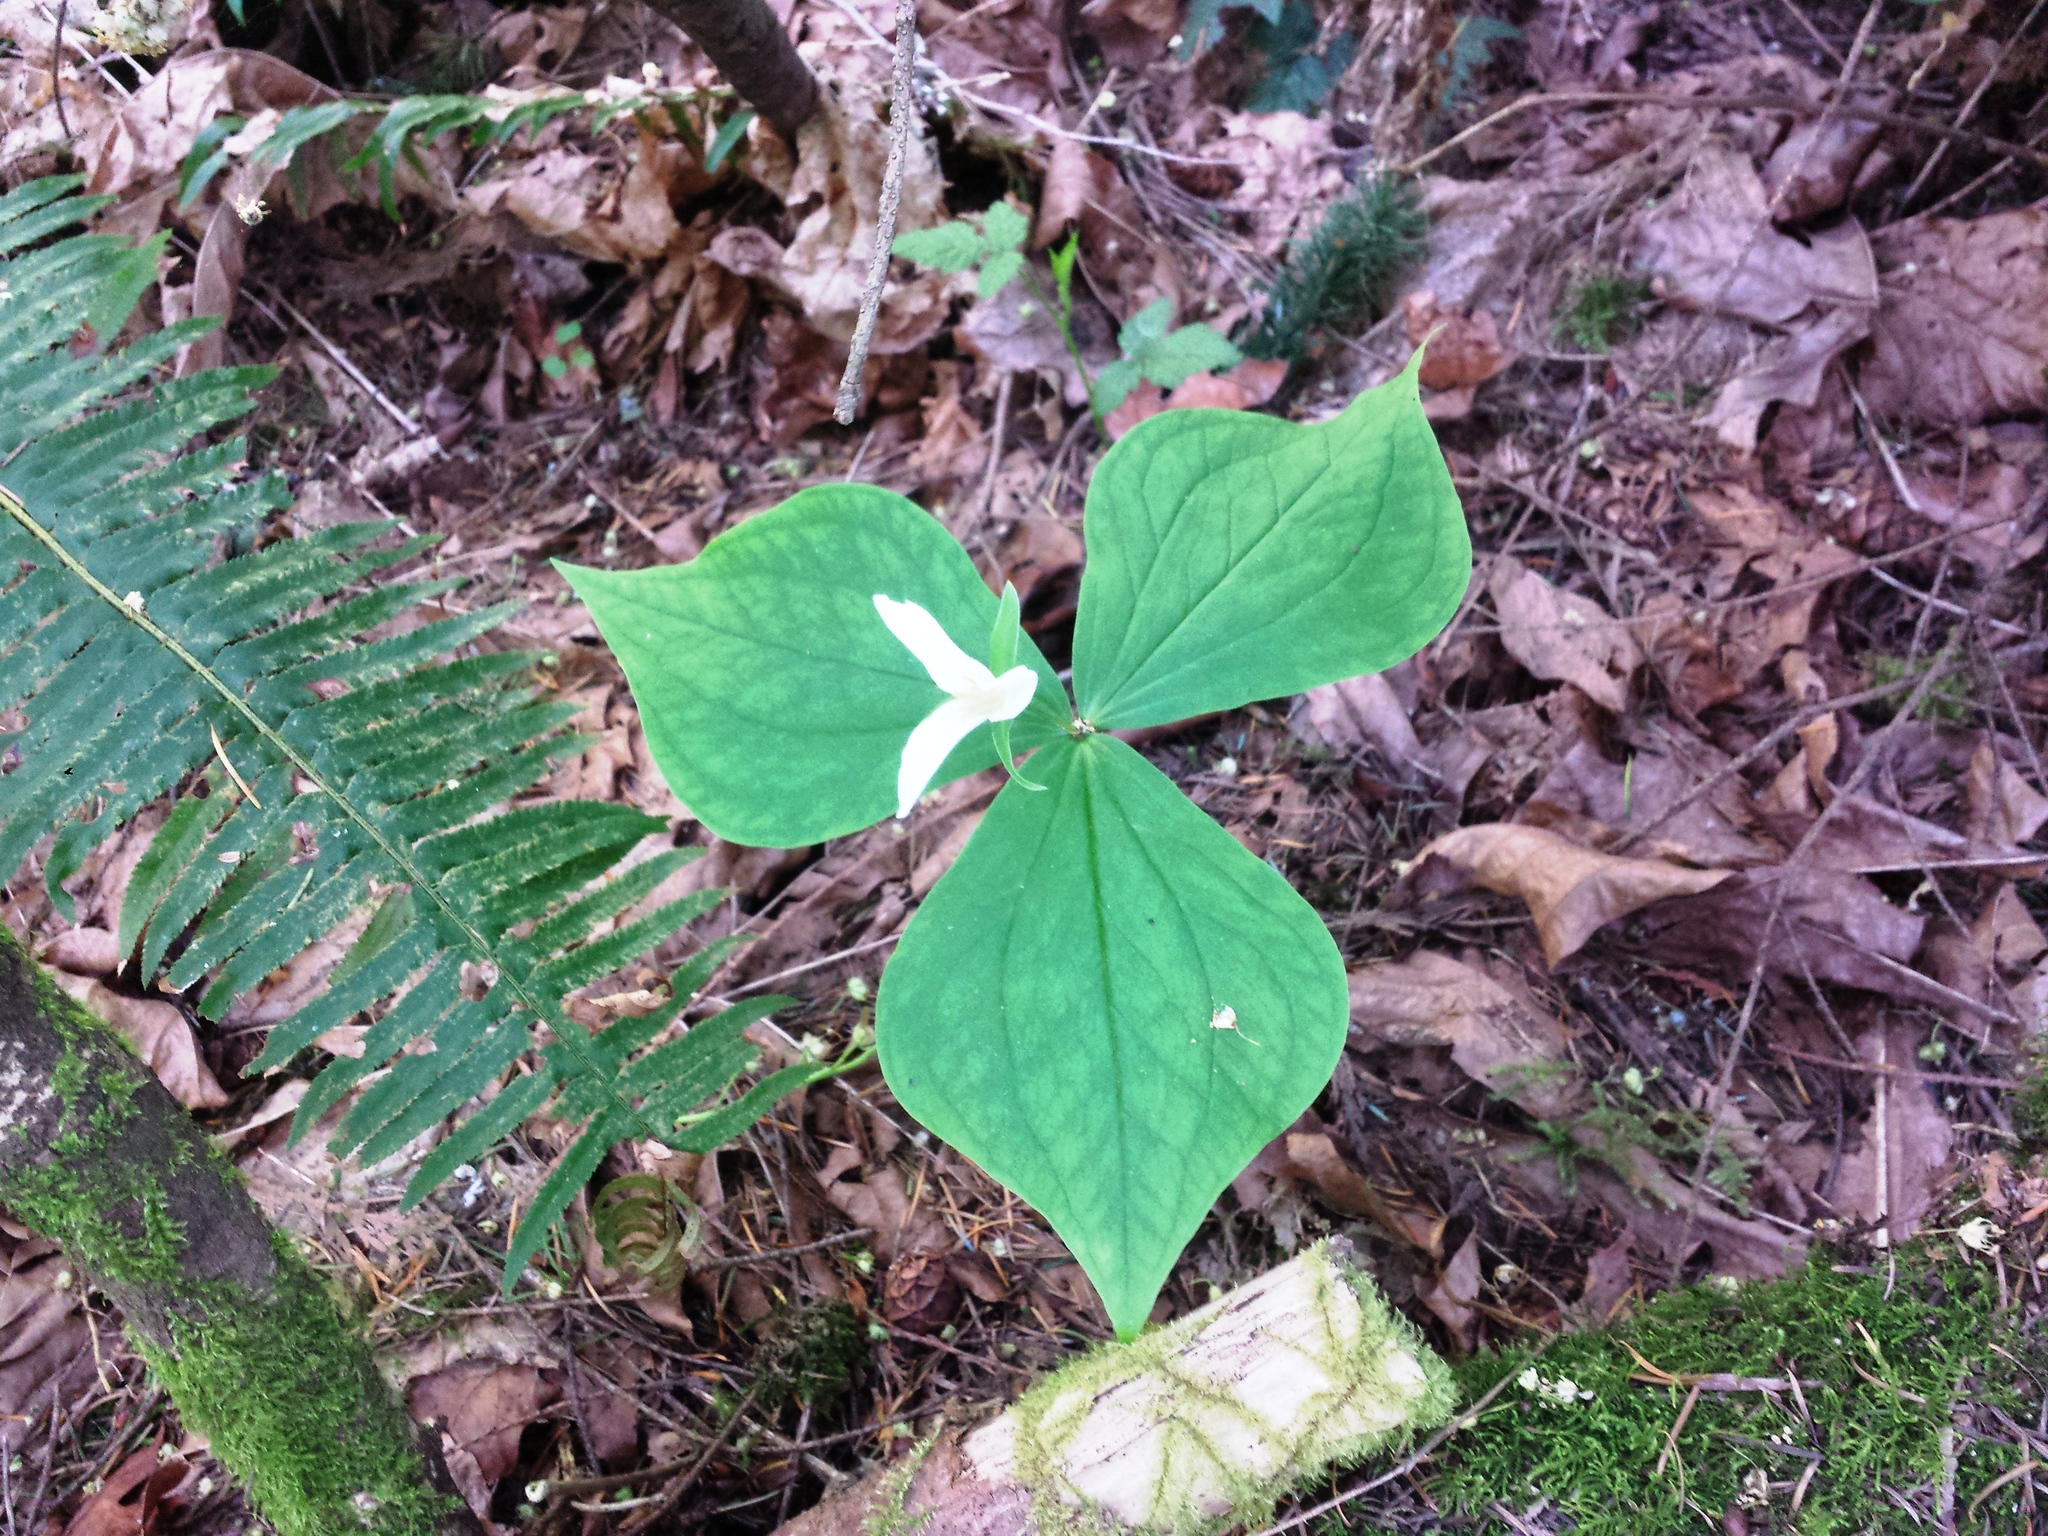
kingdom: Plantae
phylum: Tracheophyta
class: Liliopsida
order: Liliales
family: Melanthiaceae
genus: Trillium
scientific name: Trillium ovatum
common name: Pacific trillium
